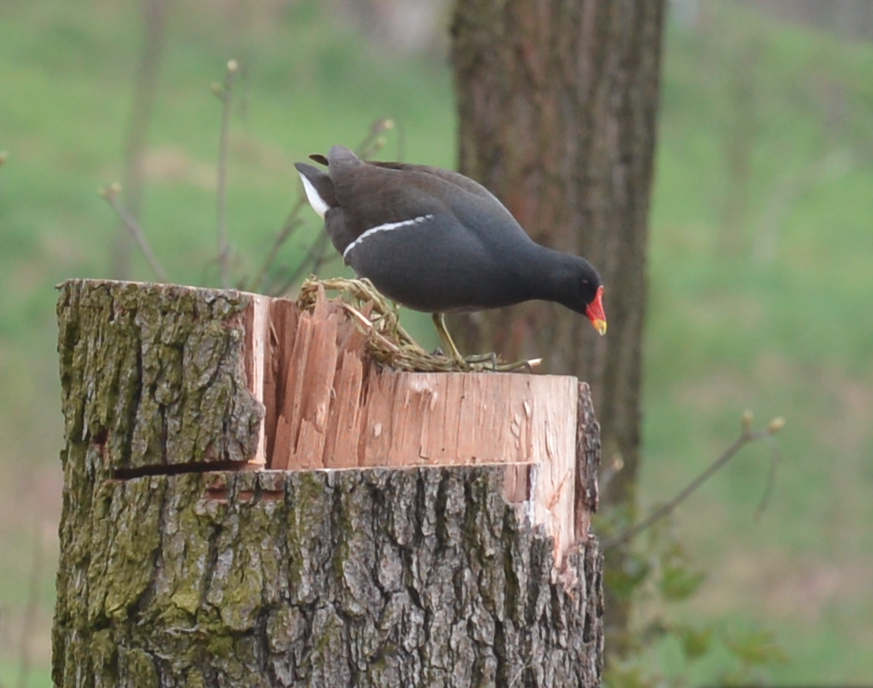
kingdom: Animalia
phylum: Chordata
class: Aves
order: Gruiformes
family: Rallidae
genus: Gallinula
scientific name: Gallinula chloropus
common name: Common moorhen
